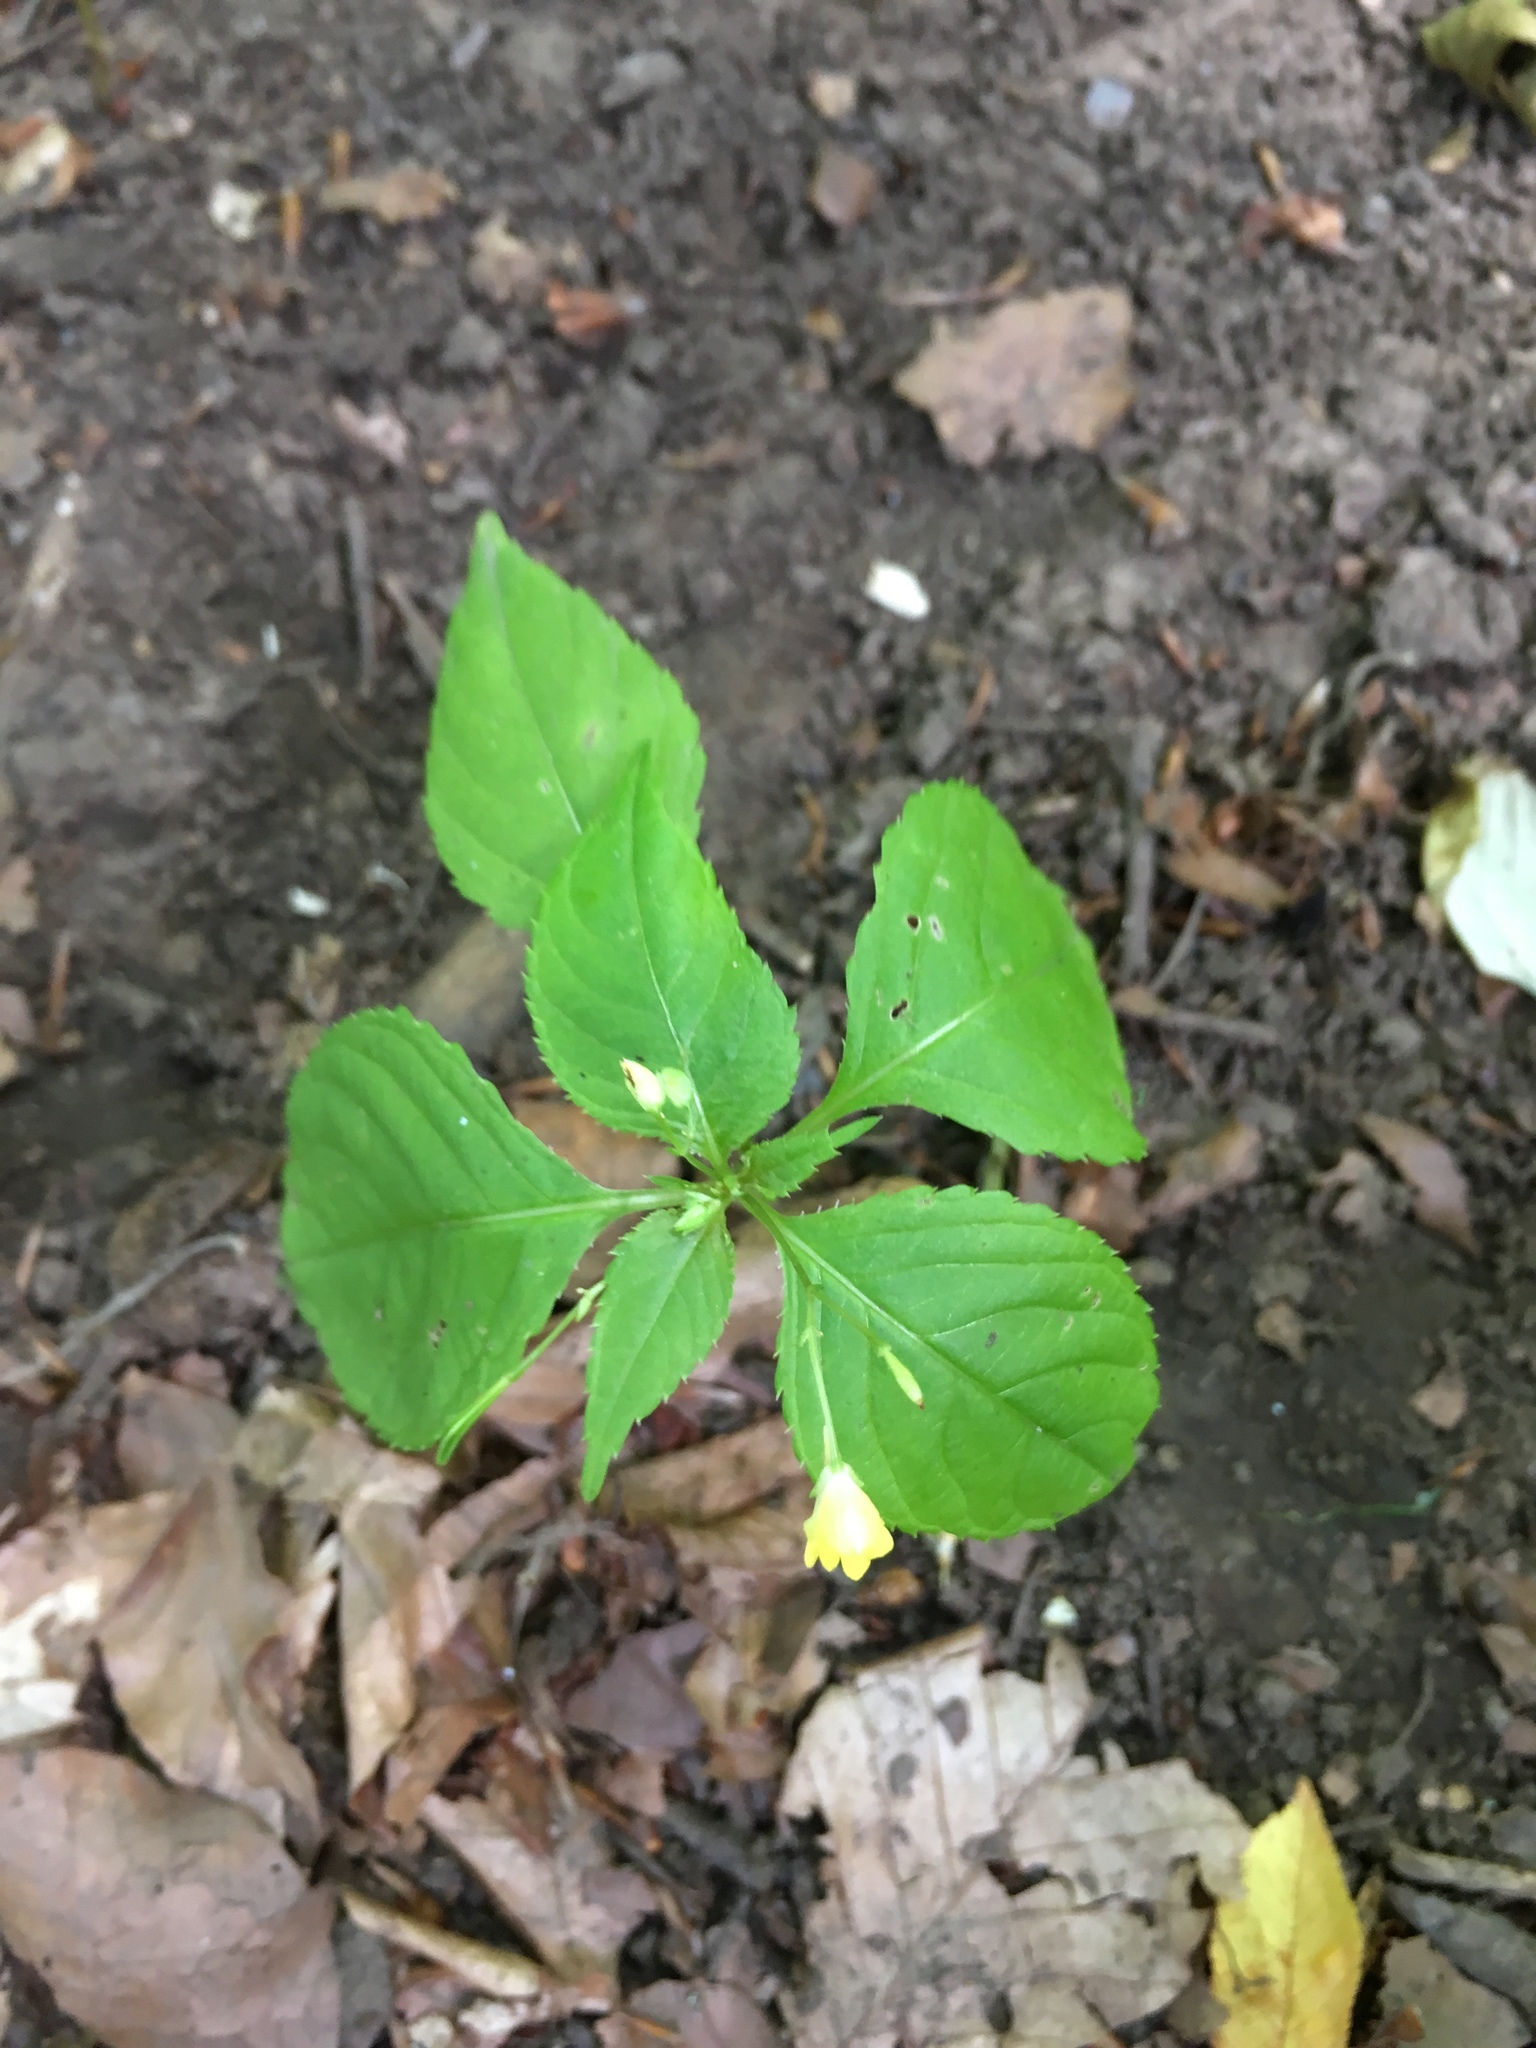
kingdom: Plantae
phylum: Tracheophyta
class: Magnoliopsida
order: Ericales
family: Balsaminaceae
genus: Impatiens
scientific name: Impatiens parviflora
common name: Small balsam
